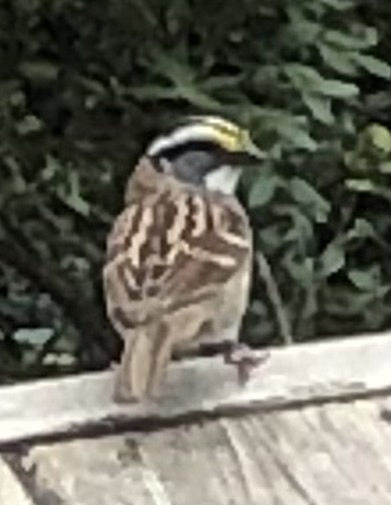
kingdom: Animalia
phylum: Chordata
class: Aves
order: Passeriformes
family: Passerellidae
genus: Zonotrichia
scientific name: Zonotrichia albicollis
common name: White-throated sparrow
